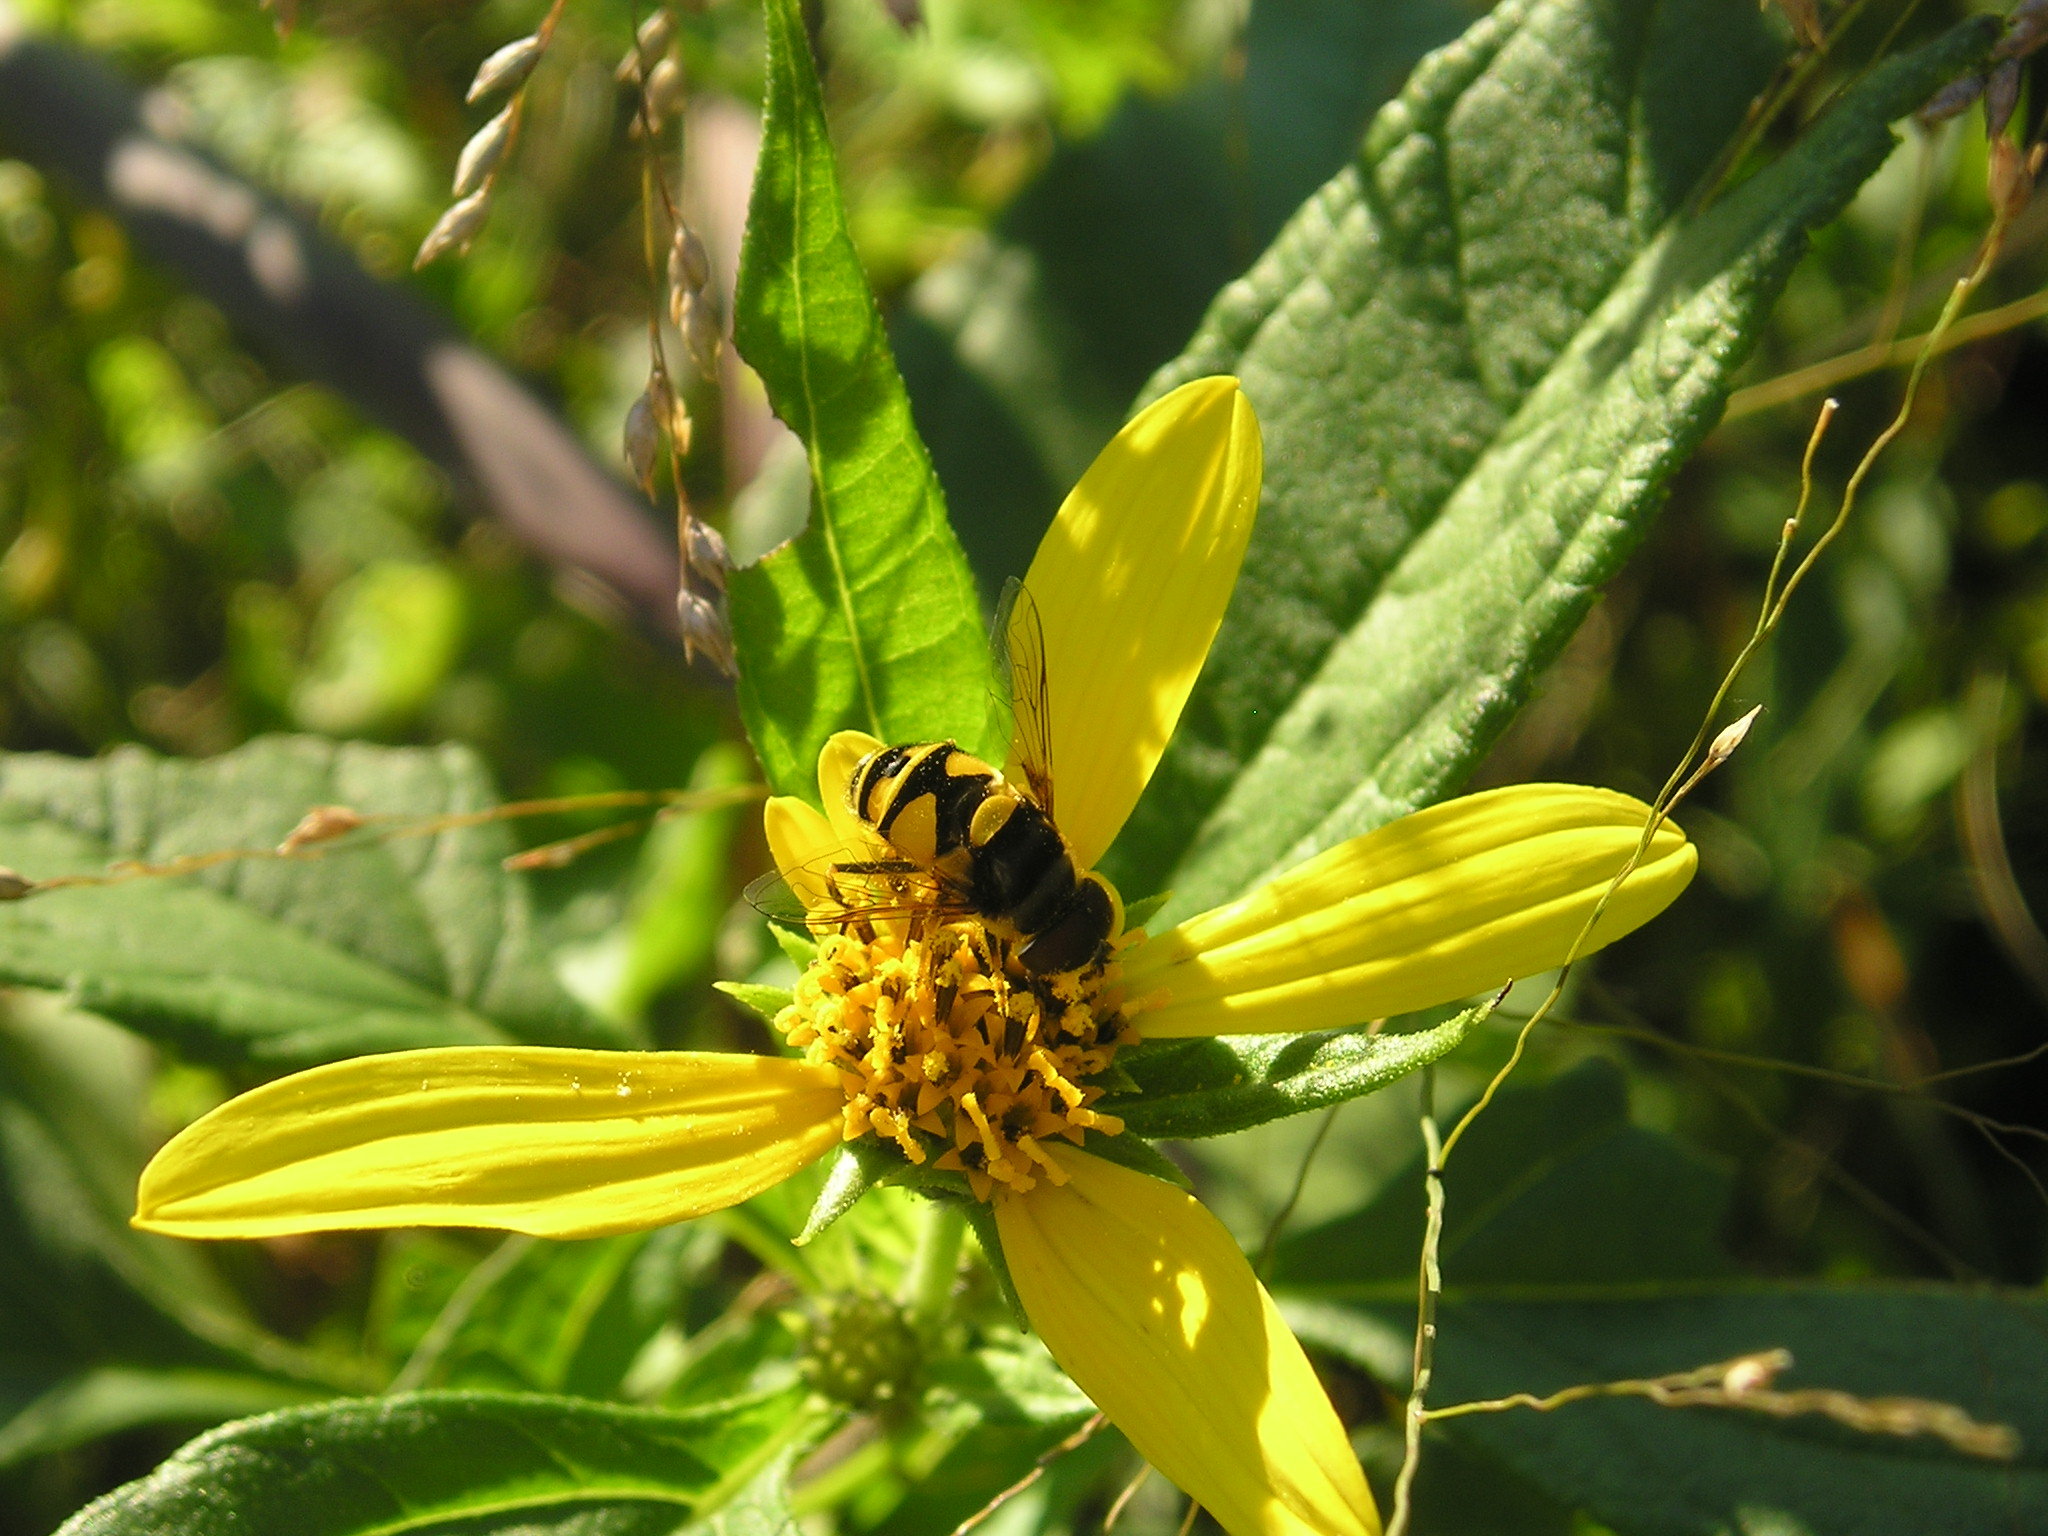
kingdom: Animalia
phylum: Arthropoda
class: Insecta
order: Diptera
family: Syrphidae
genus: Eristalis
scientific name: Eristalis transversa
